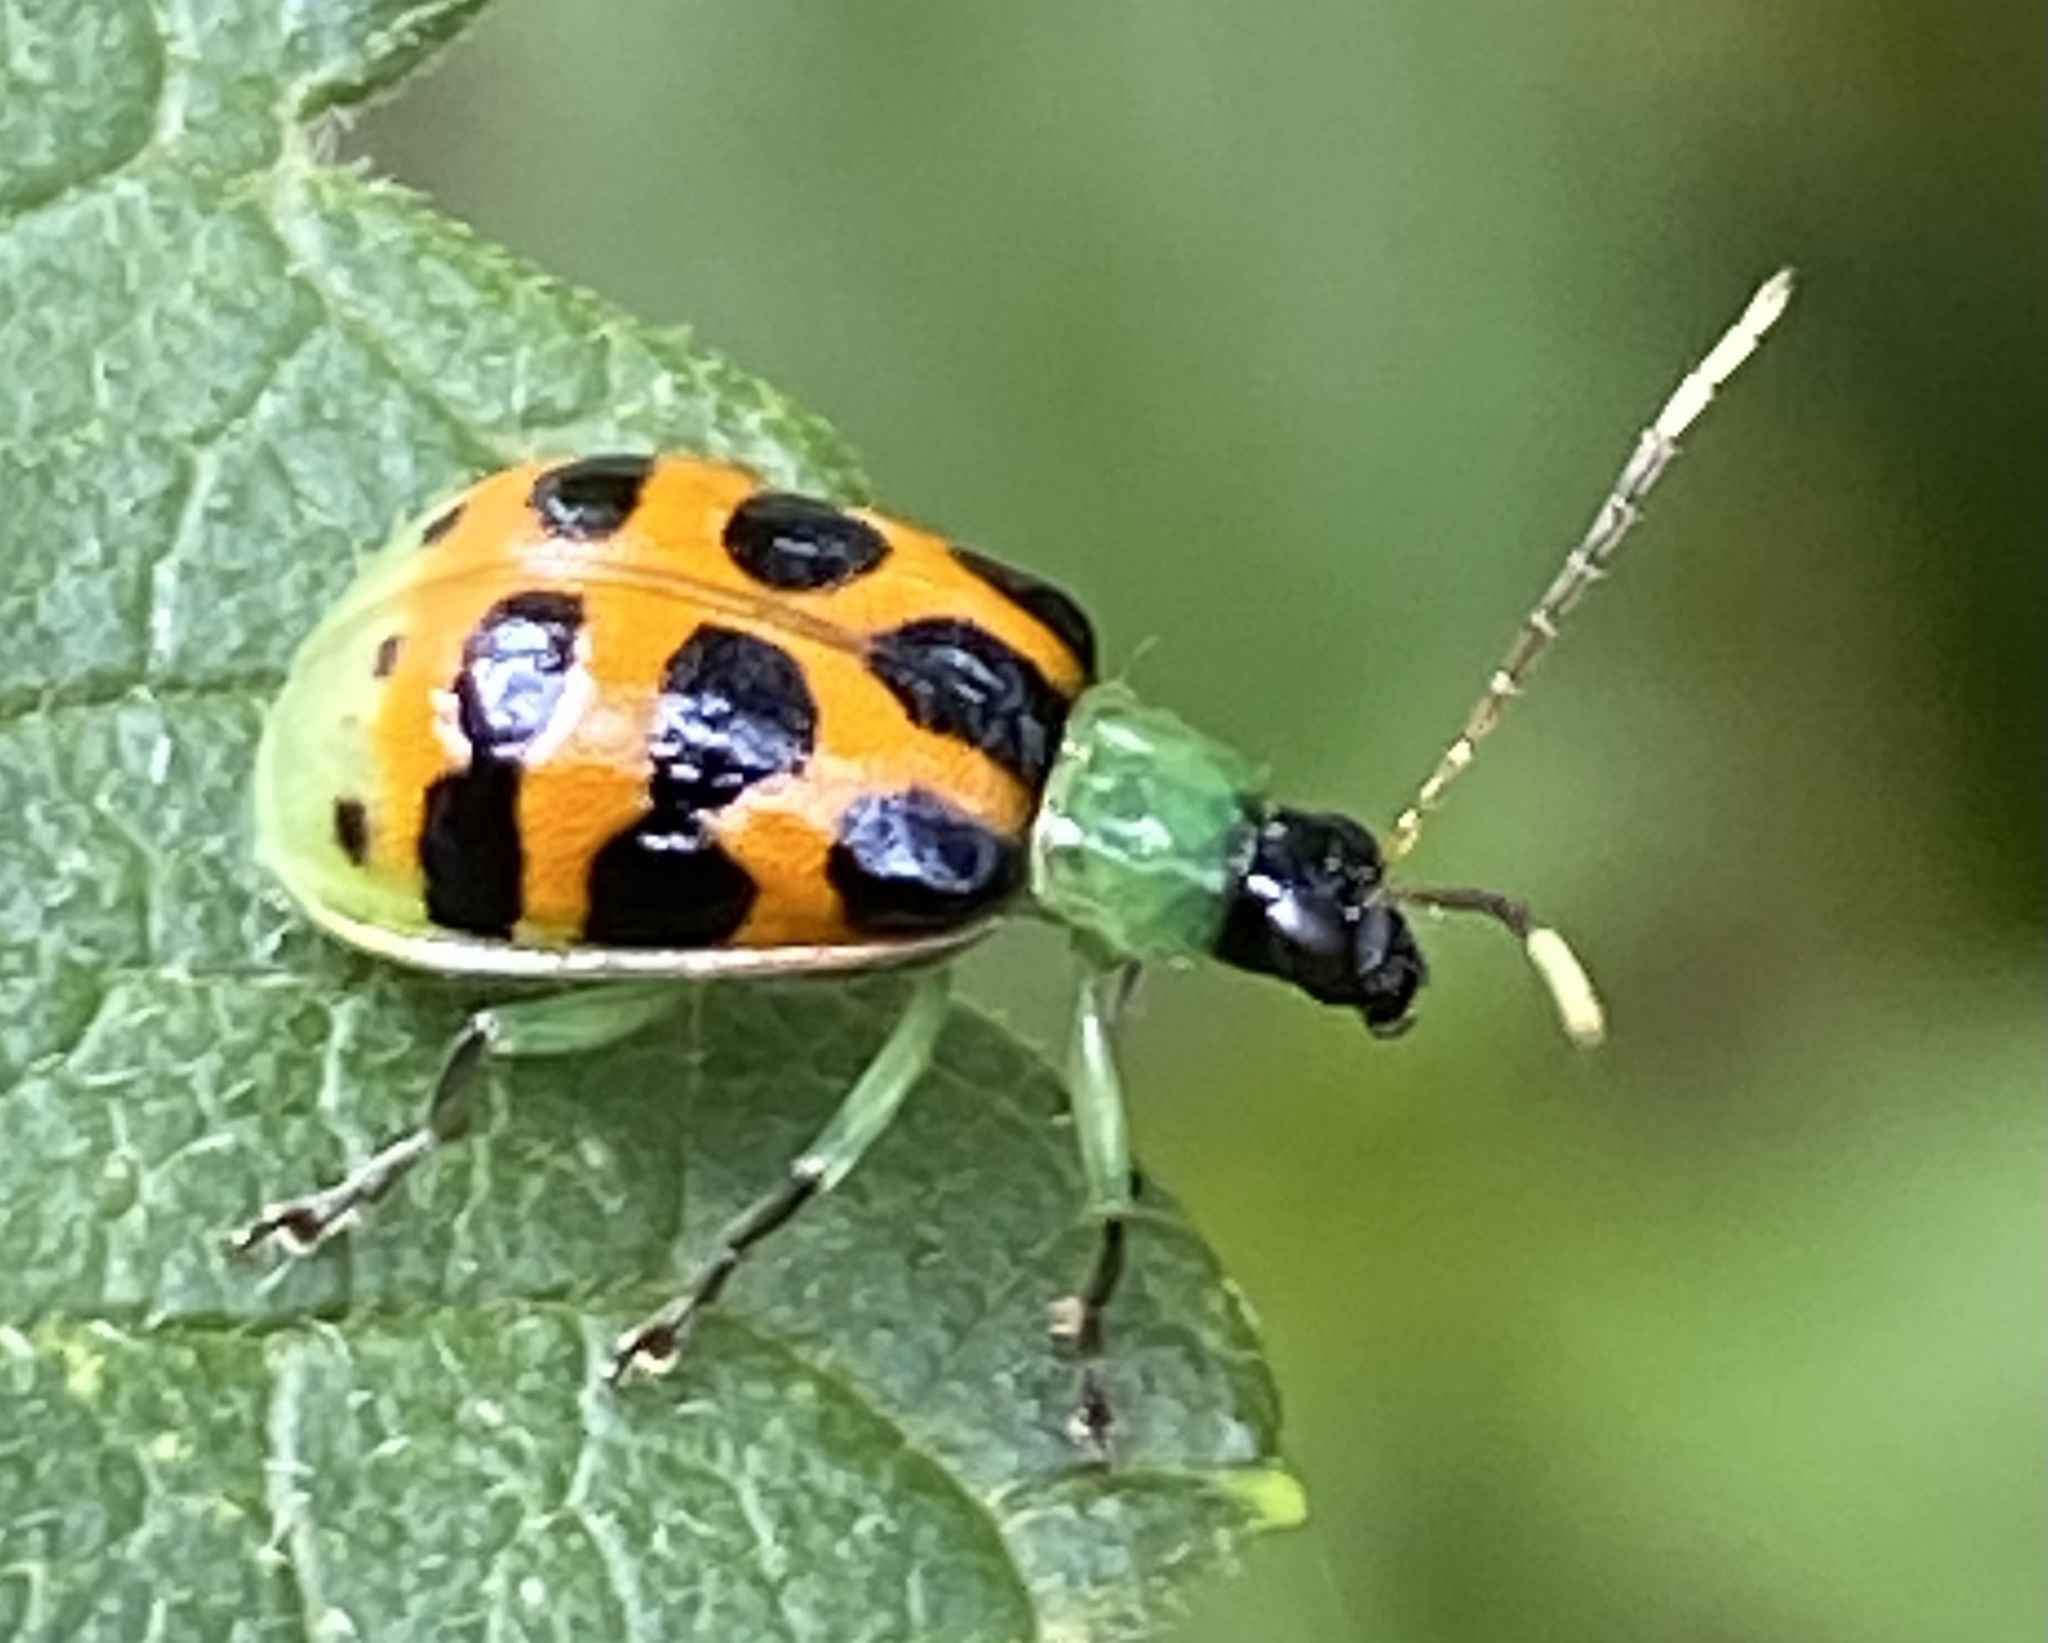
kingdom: Animalia
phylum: Arthropoda
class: Insecta
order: Coleoptera
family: Chrysomelidae
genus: Diabrotica
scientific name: Diabrotica limitata
